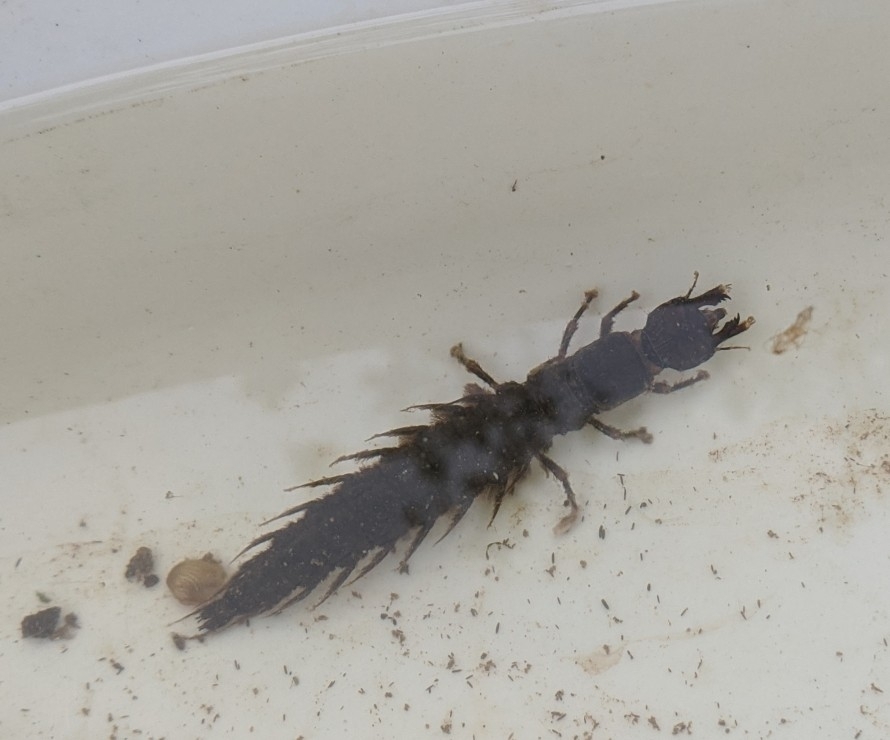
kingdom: Animalia
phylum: Arthropoda
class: Insecta
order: Megaloptera
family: Corydalidae
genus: Corydalus
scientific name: Corydalus cornutus
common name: Dobsonfly
